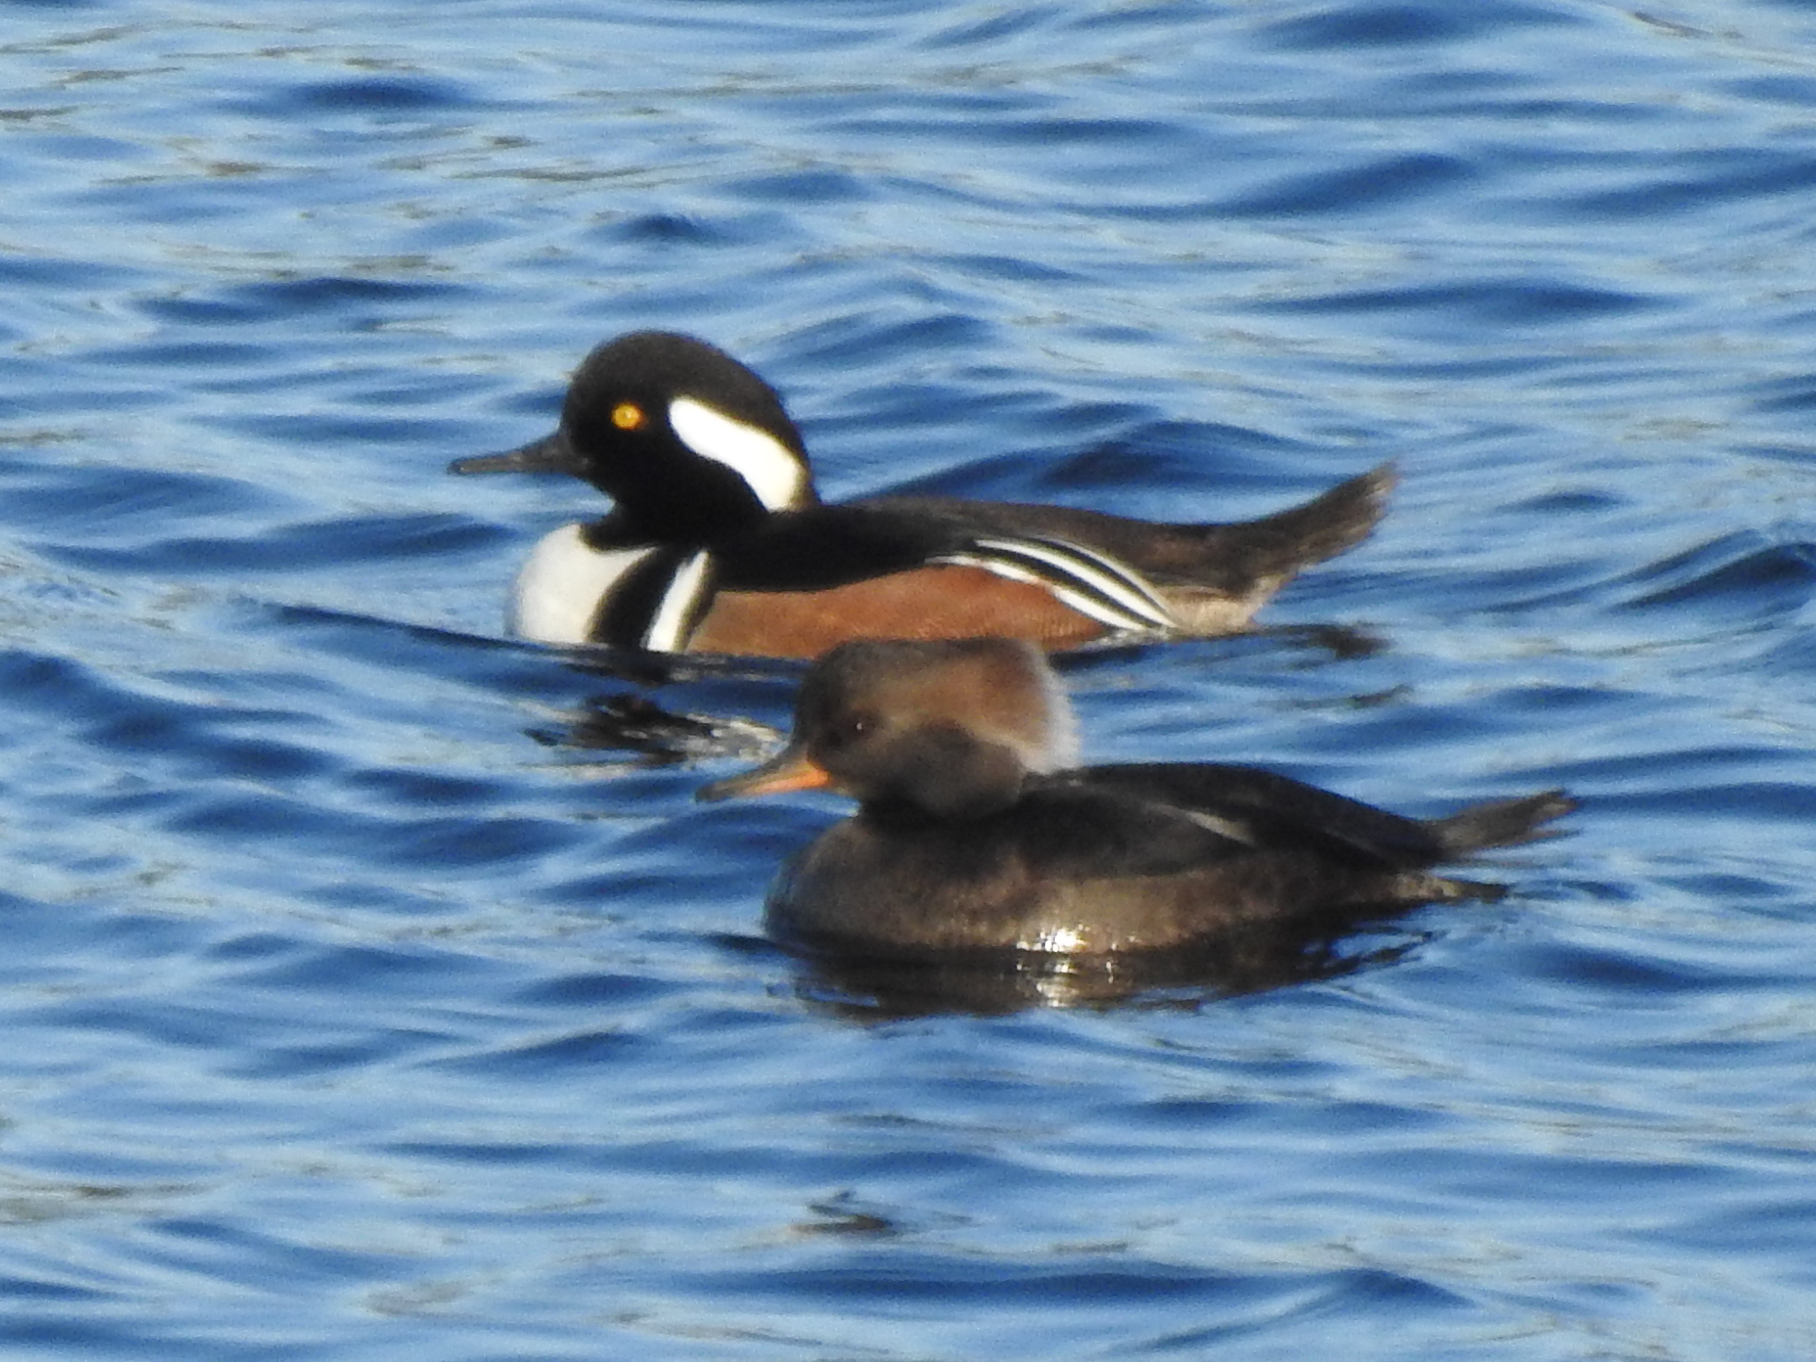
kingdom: Animalia
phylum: Chordata
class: Aves
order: Anseriformes
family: Anatidae
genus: Lophodytes
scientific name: Lophodytes cucullatus
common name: Hooded merganser
